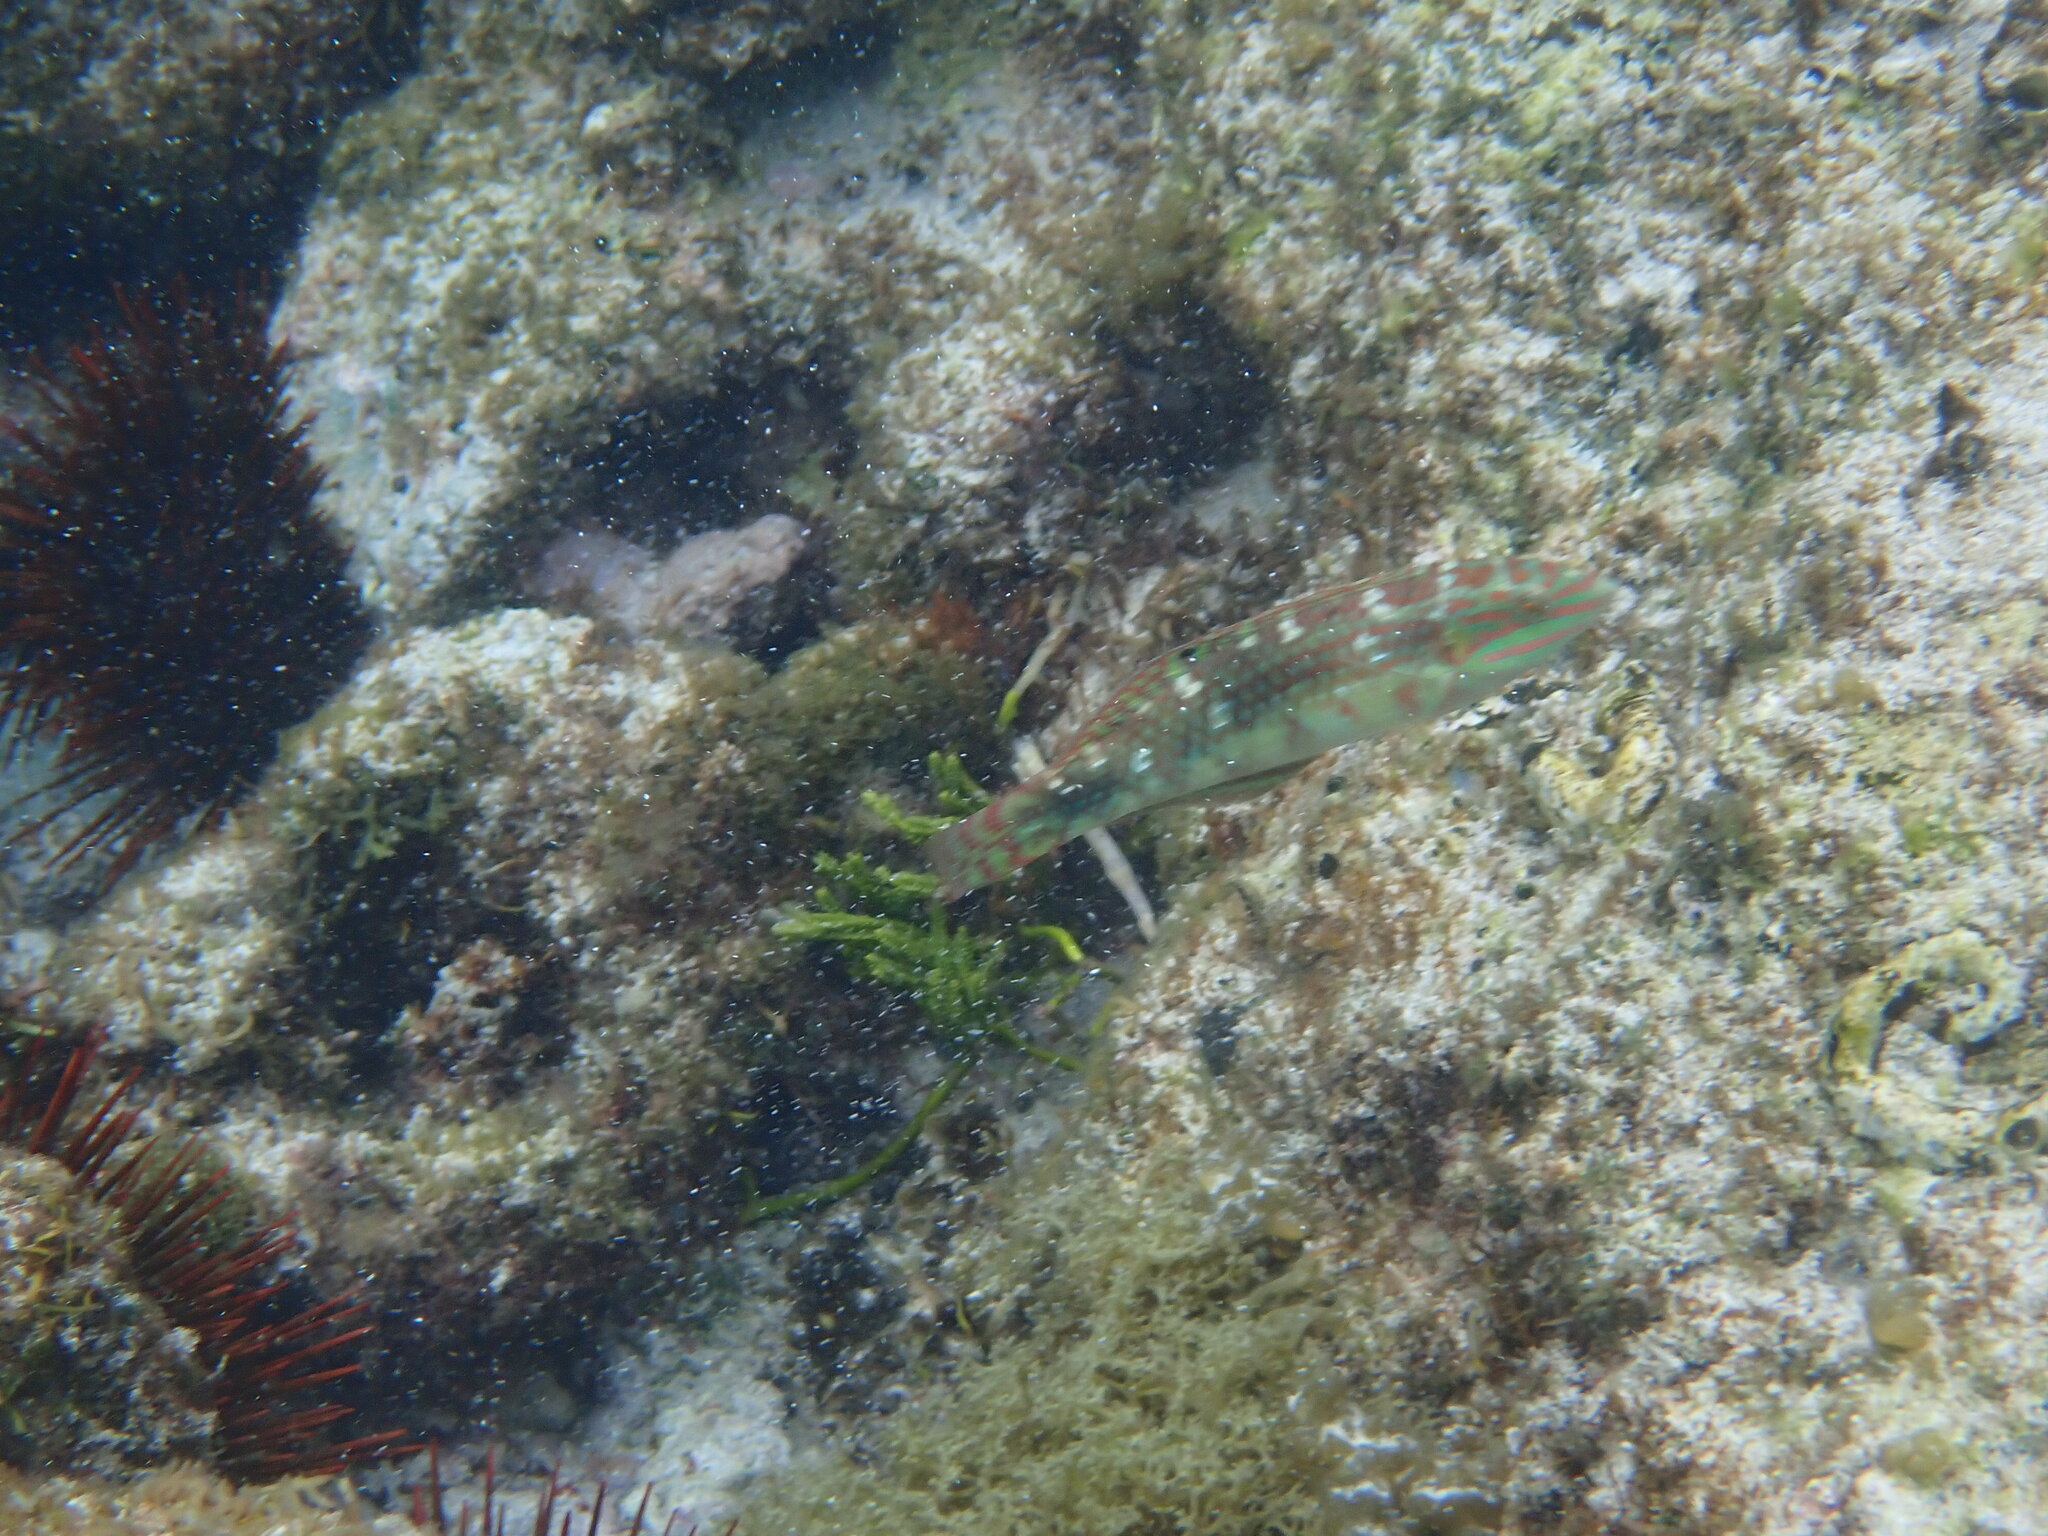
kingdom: Animalia
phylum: Chordata
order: Perciformes
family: Labridae
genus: Halichoeres
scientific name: Halichoeres margaritaceus
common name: Pink-belly wrasse
